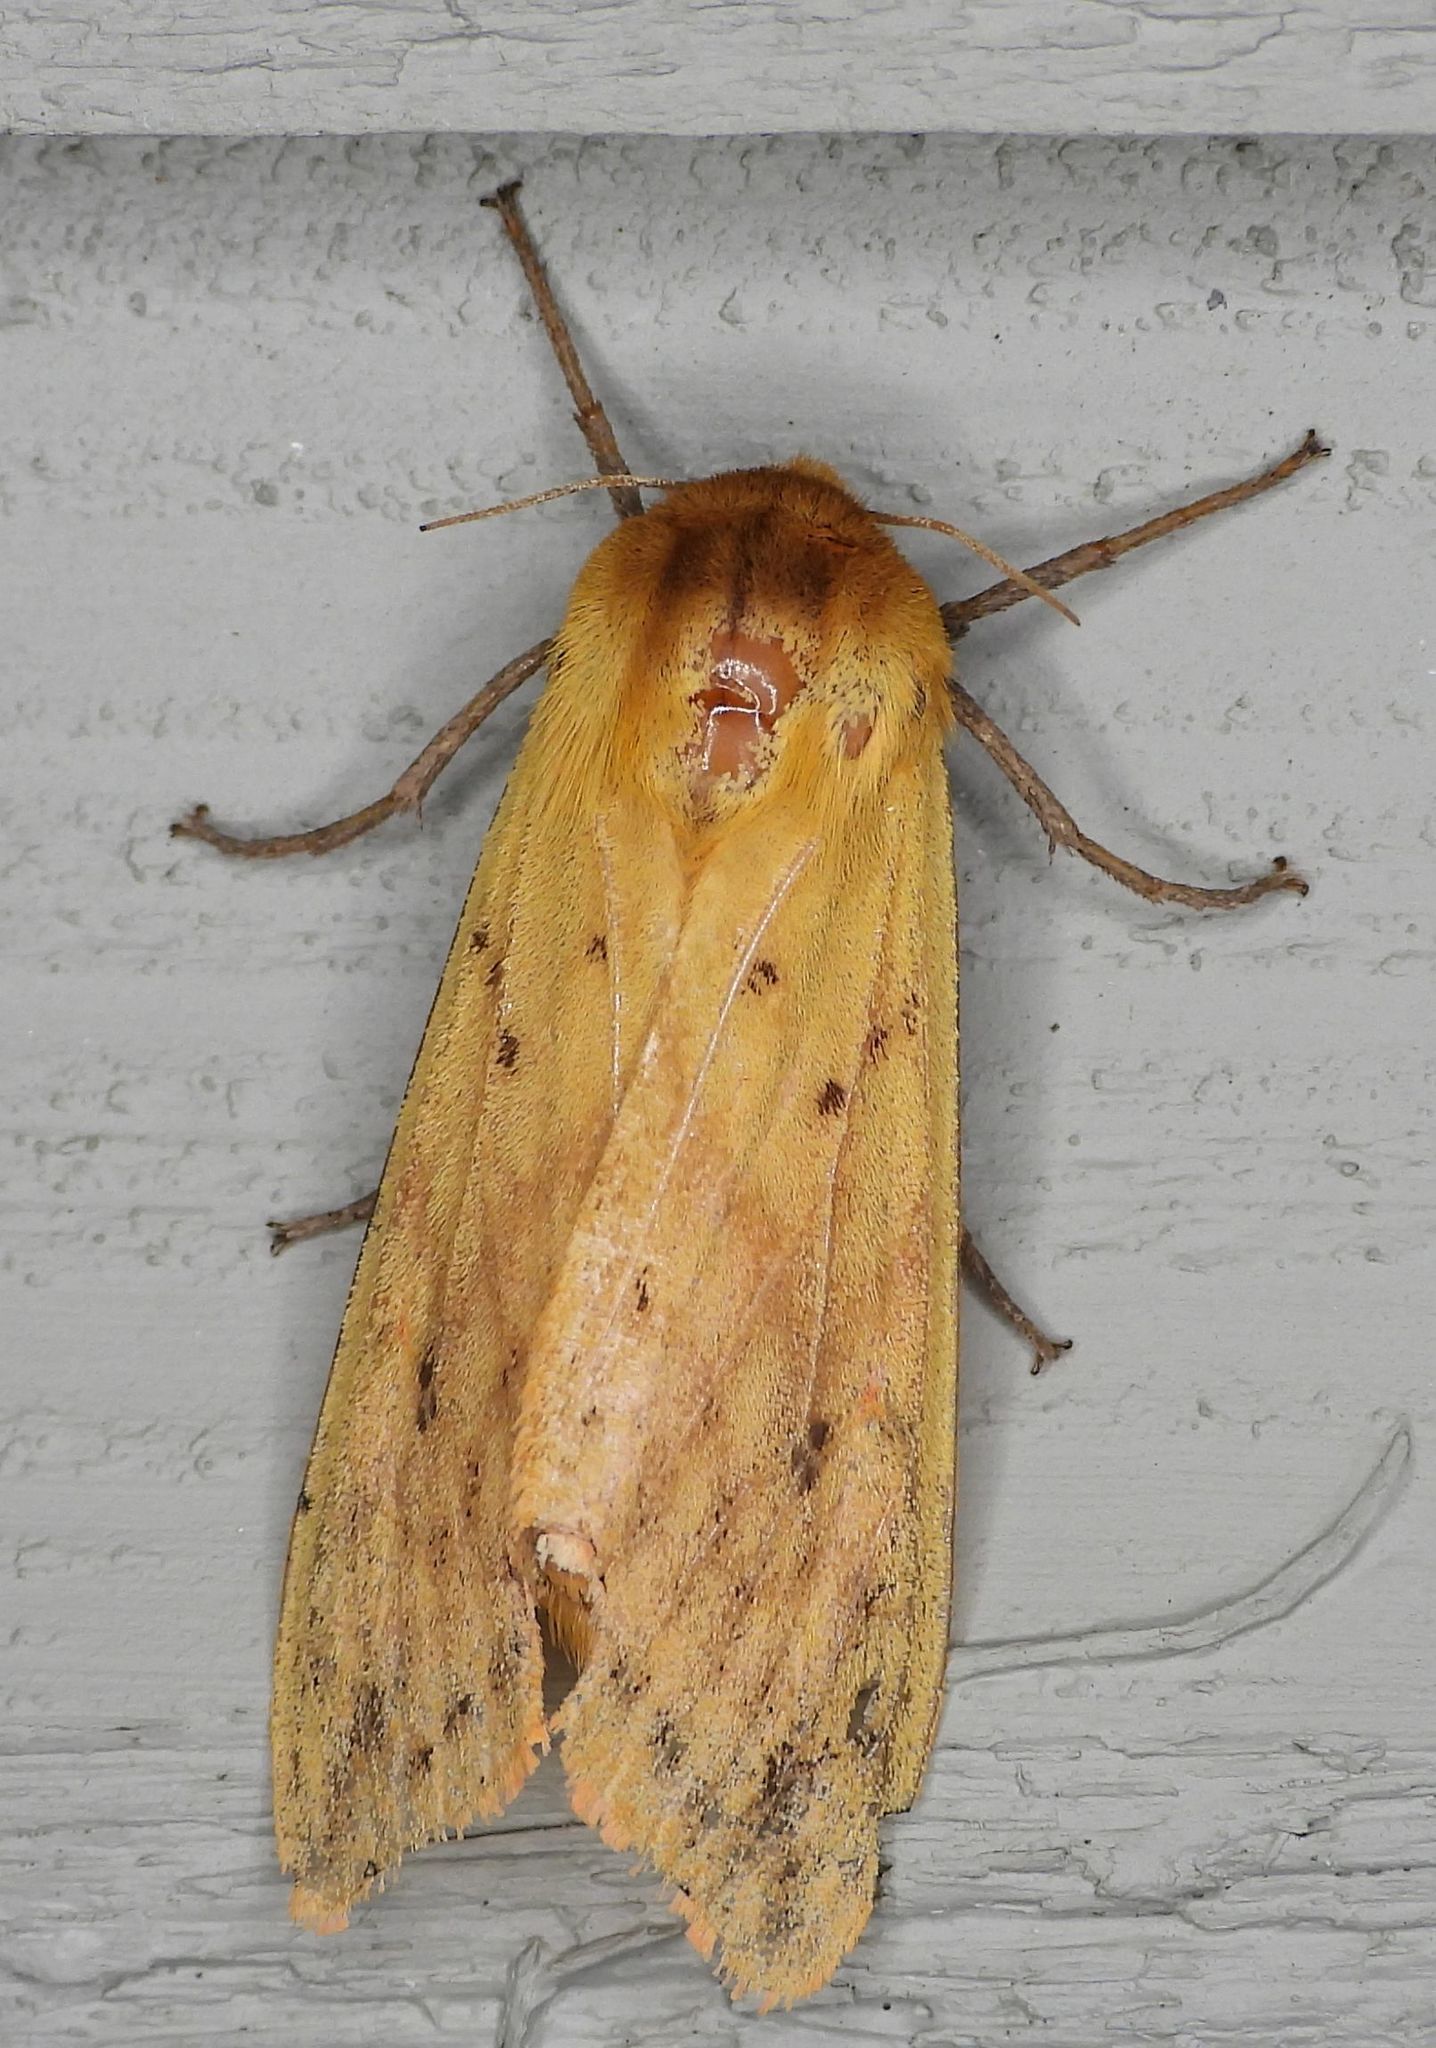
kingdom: Animalia
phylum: Arthropoda
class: Insecta
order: Lepidoptera
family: Erebidae
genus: Pyrrharctia
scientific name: Pyrrharctia isabella
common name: Isabella tiger moth
